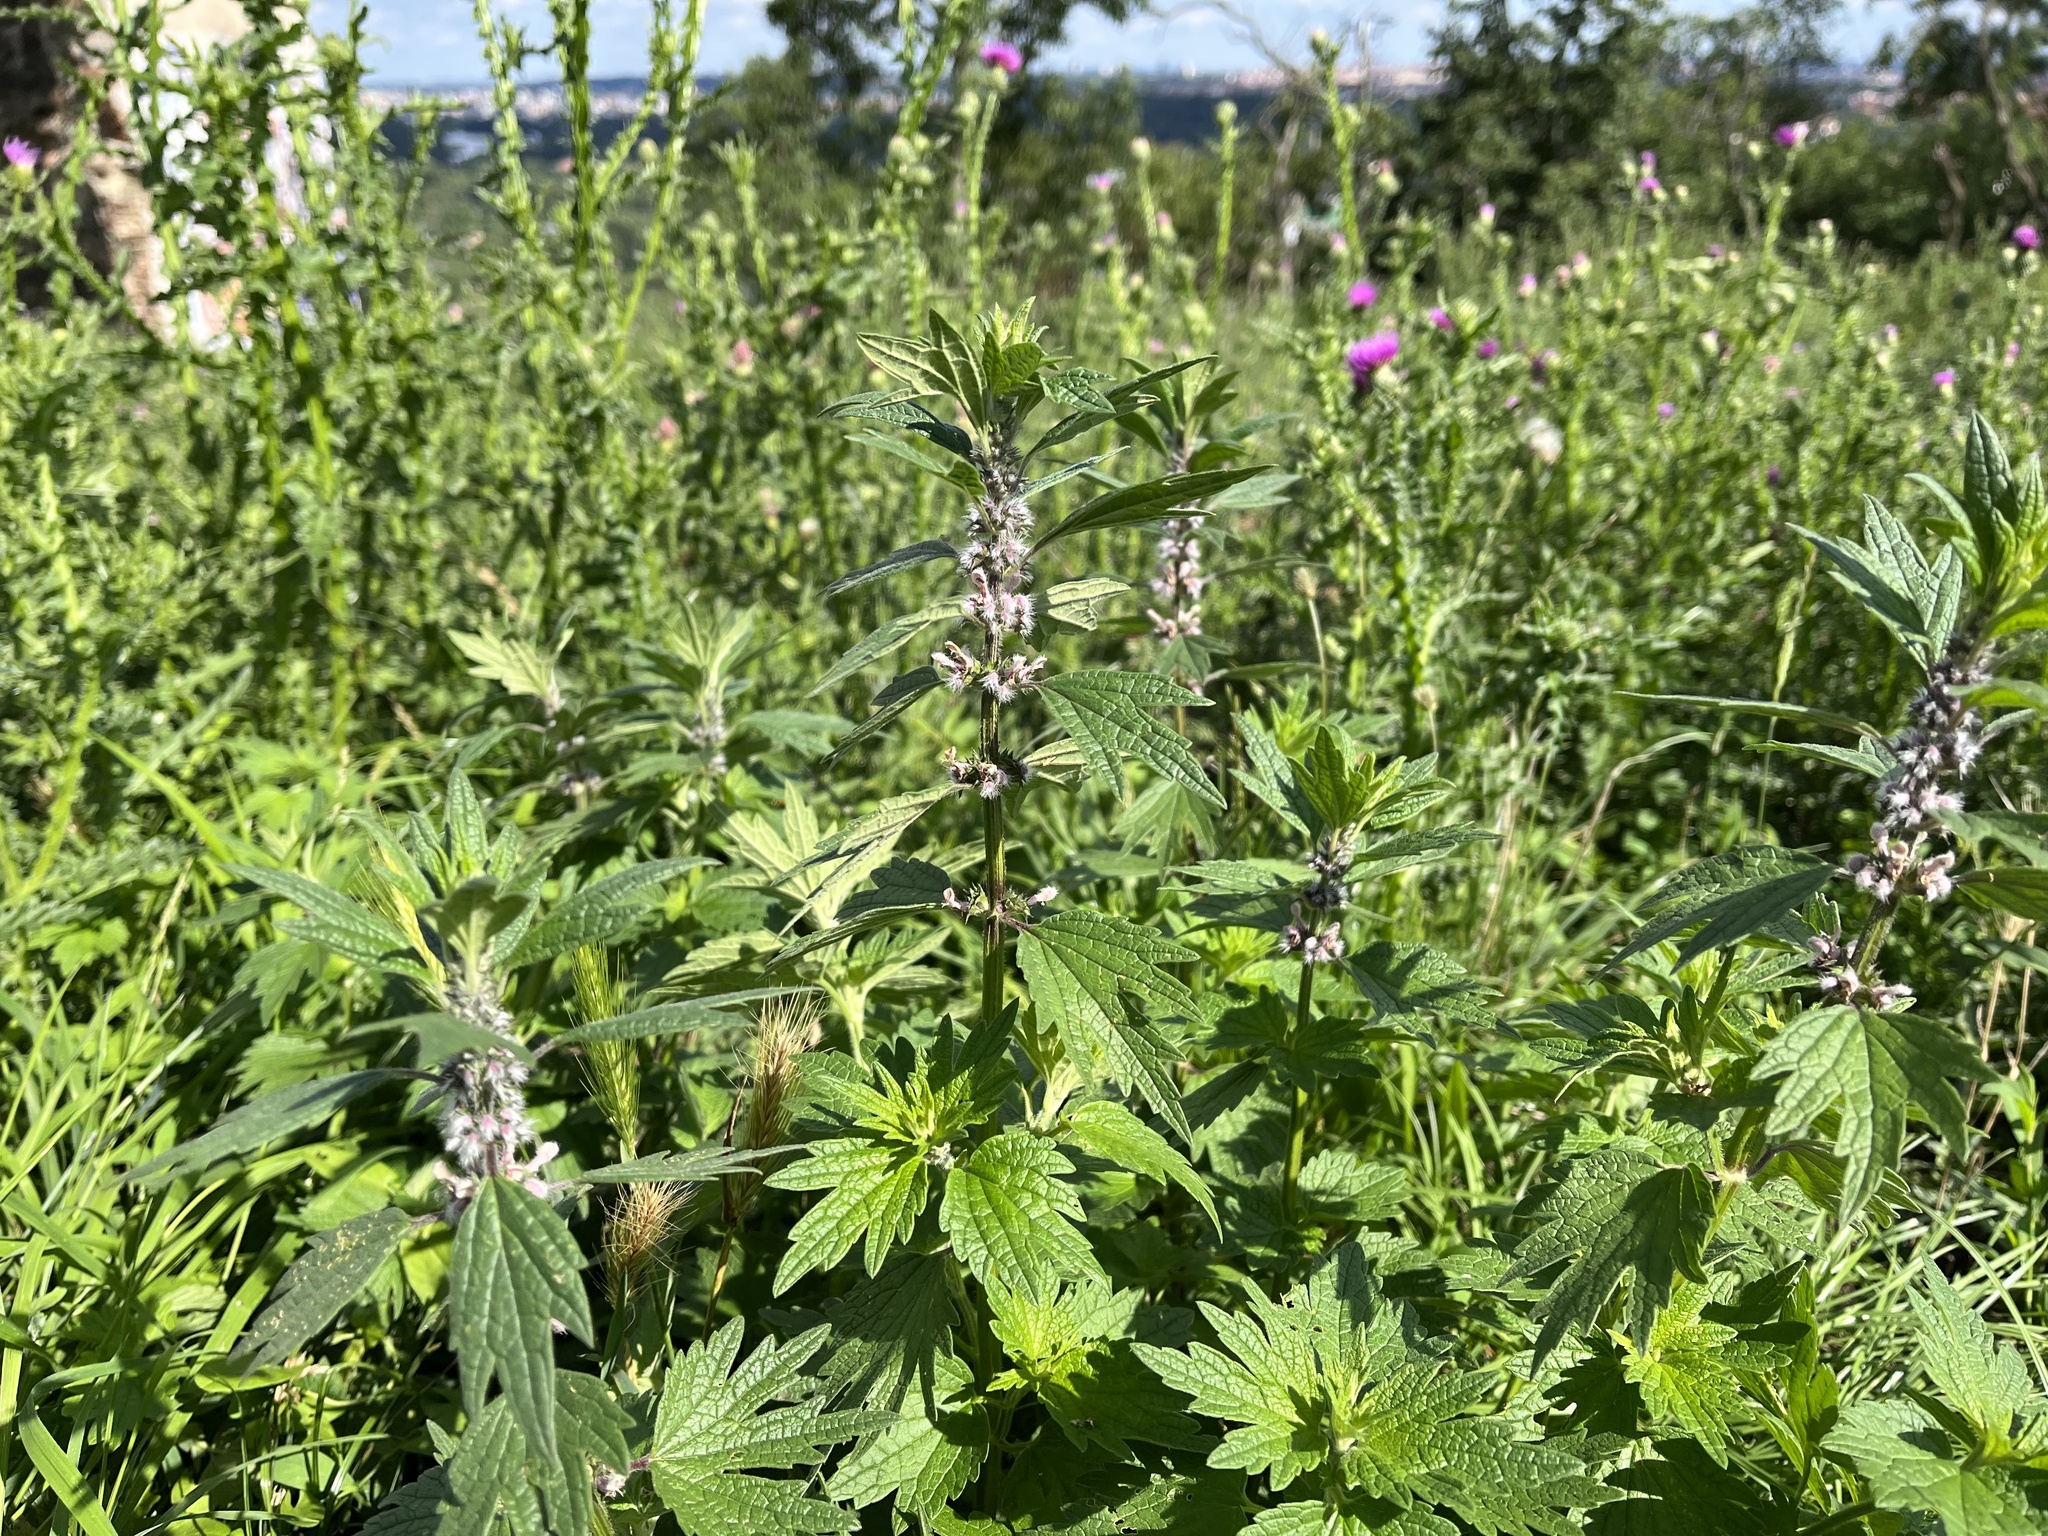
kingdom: Plantae
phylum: Tracheophyta
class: Magnoliopsida
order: Lamiales
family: Lamiaceae
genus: Leonurus
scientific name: Leonurus cardiaca
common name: Motherwort
